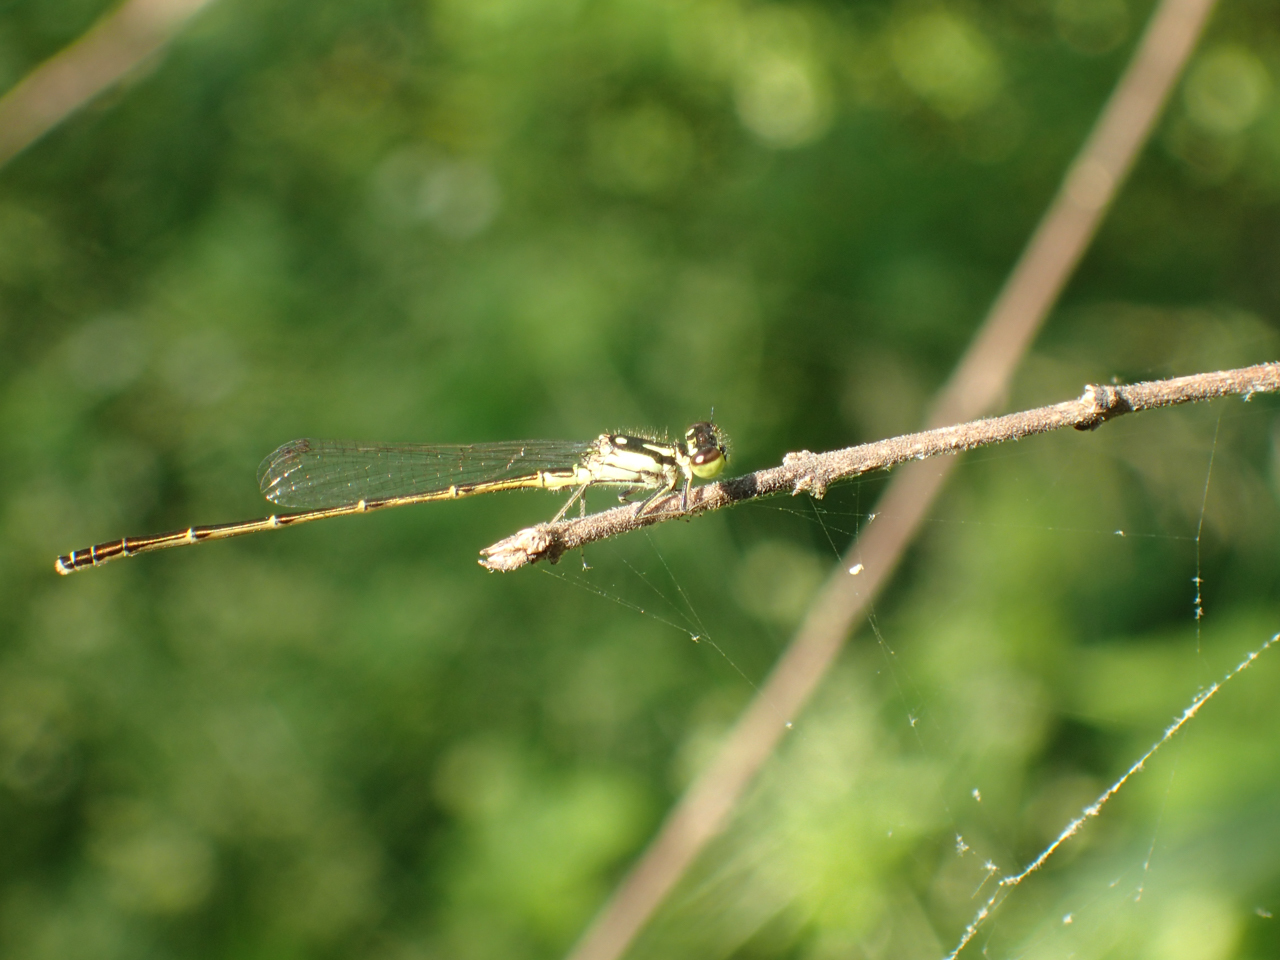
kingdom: Animalia
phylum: Arthropoda
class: Insecta
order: Odonata
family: Coenagrionidae
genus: Ischnura
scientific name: Ischnura posita
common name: Fragile forktail
